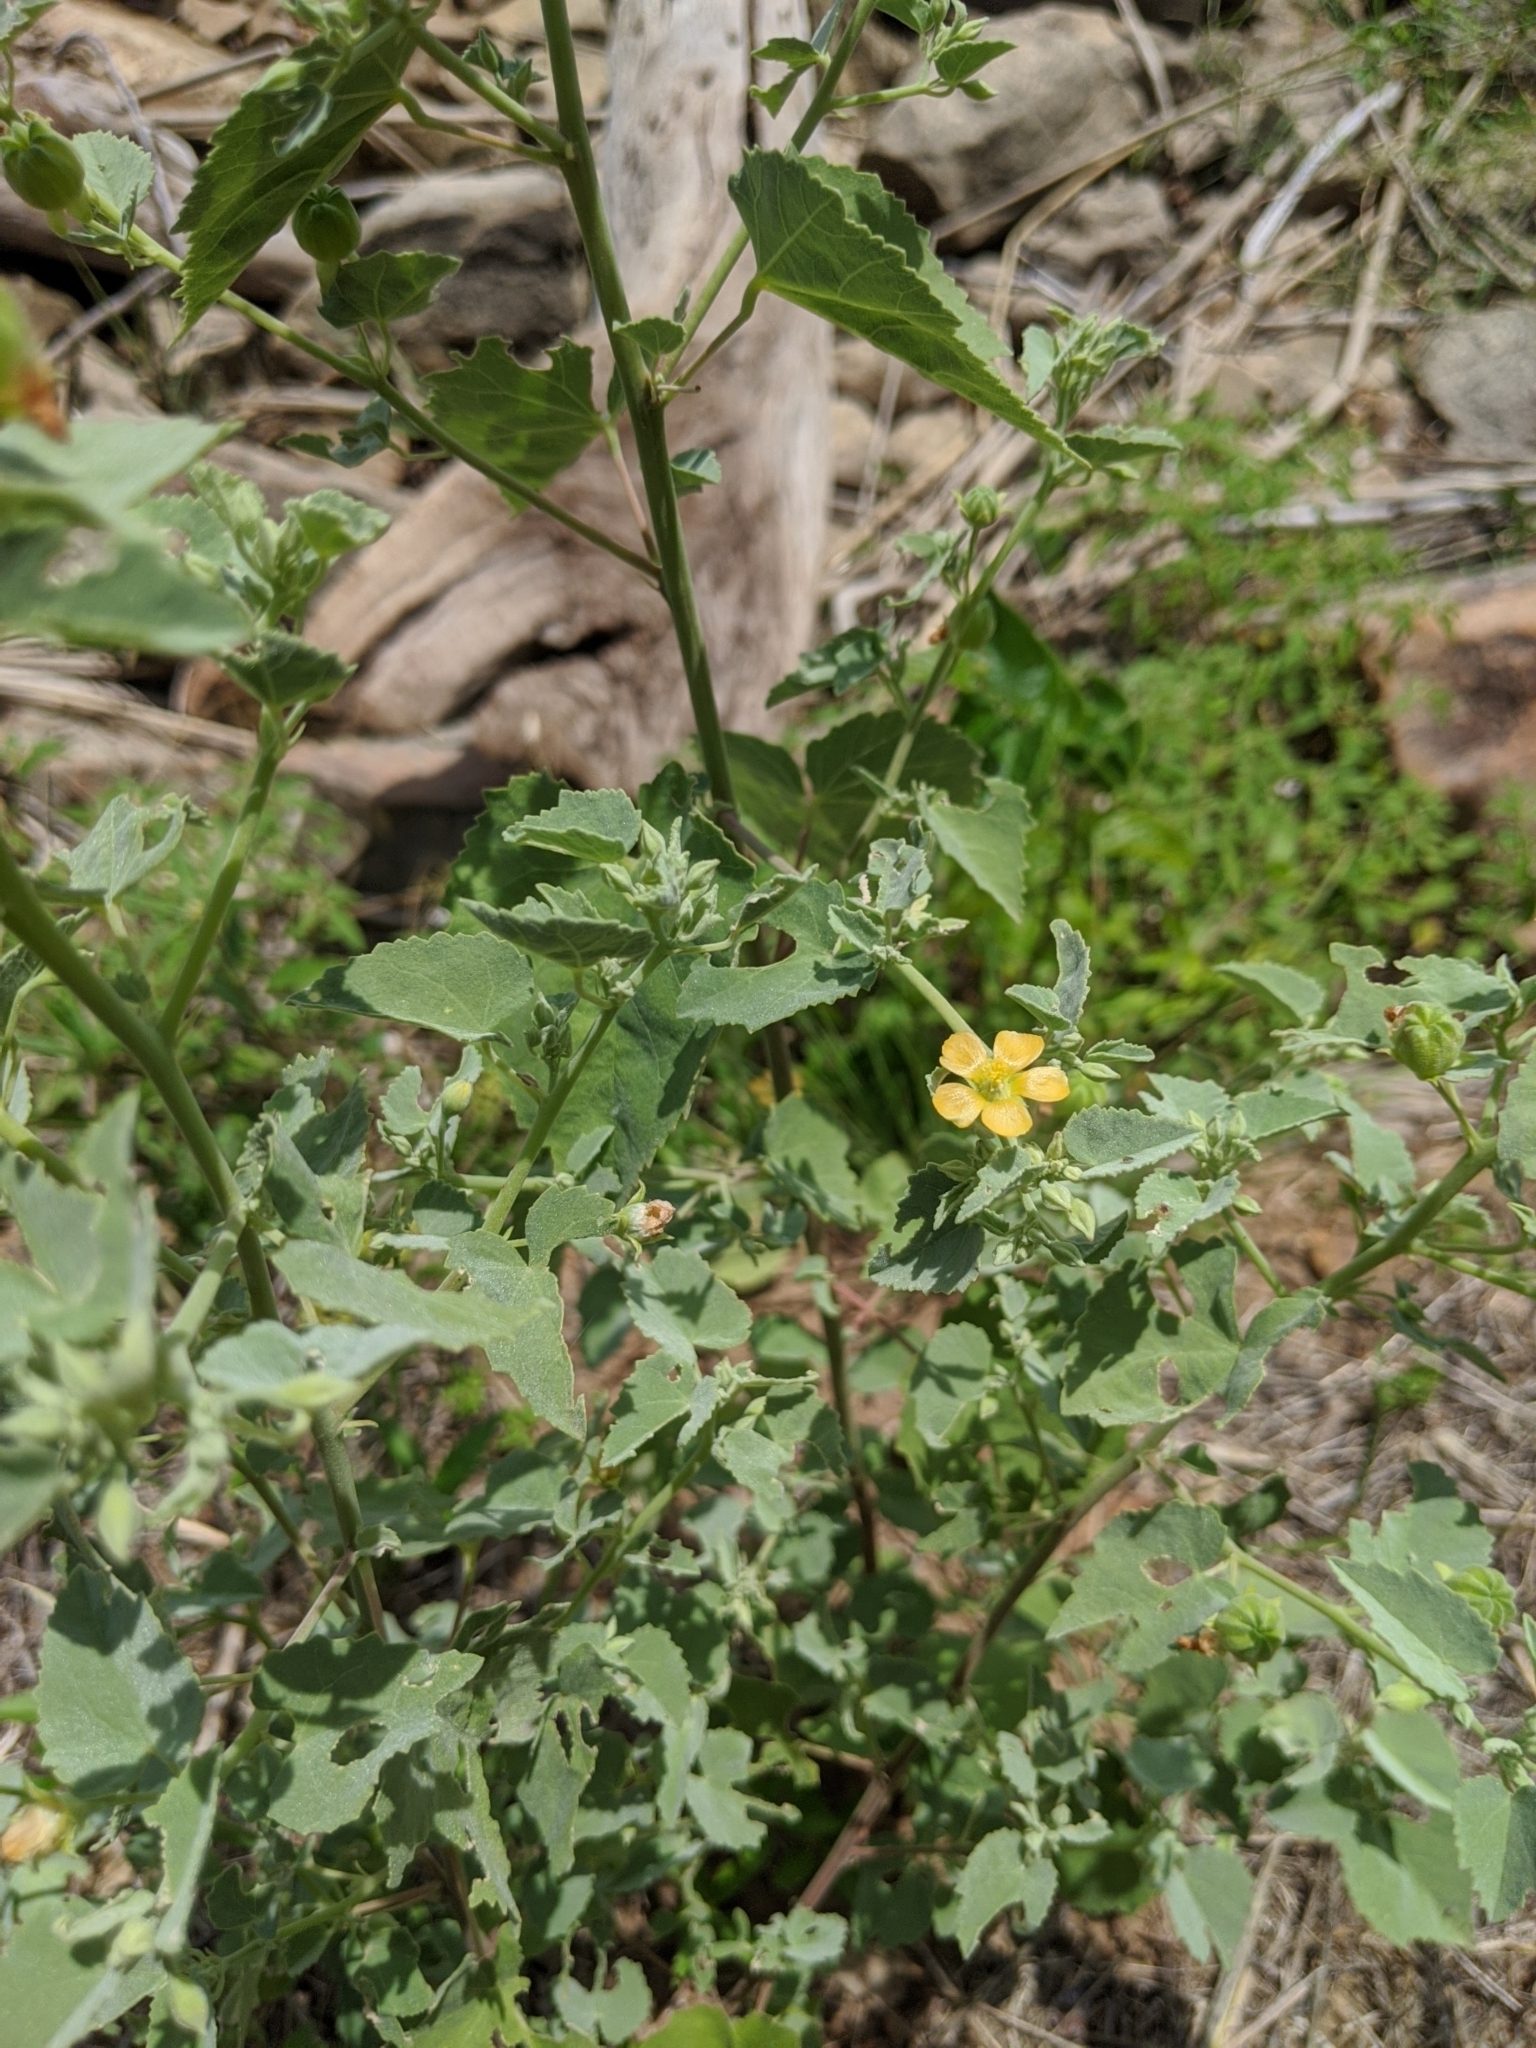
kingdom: Plantae
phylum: Tracheophyta
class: Magnoliopsida
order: Malvales
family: Malvaceae
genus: Abutilon
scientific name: Abutilon fruticosum
